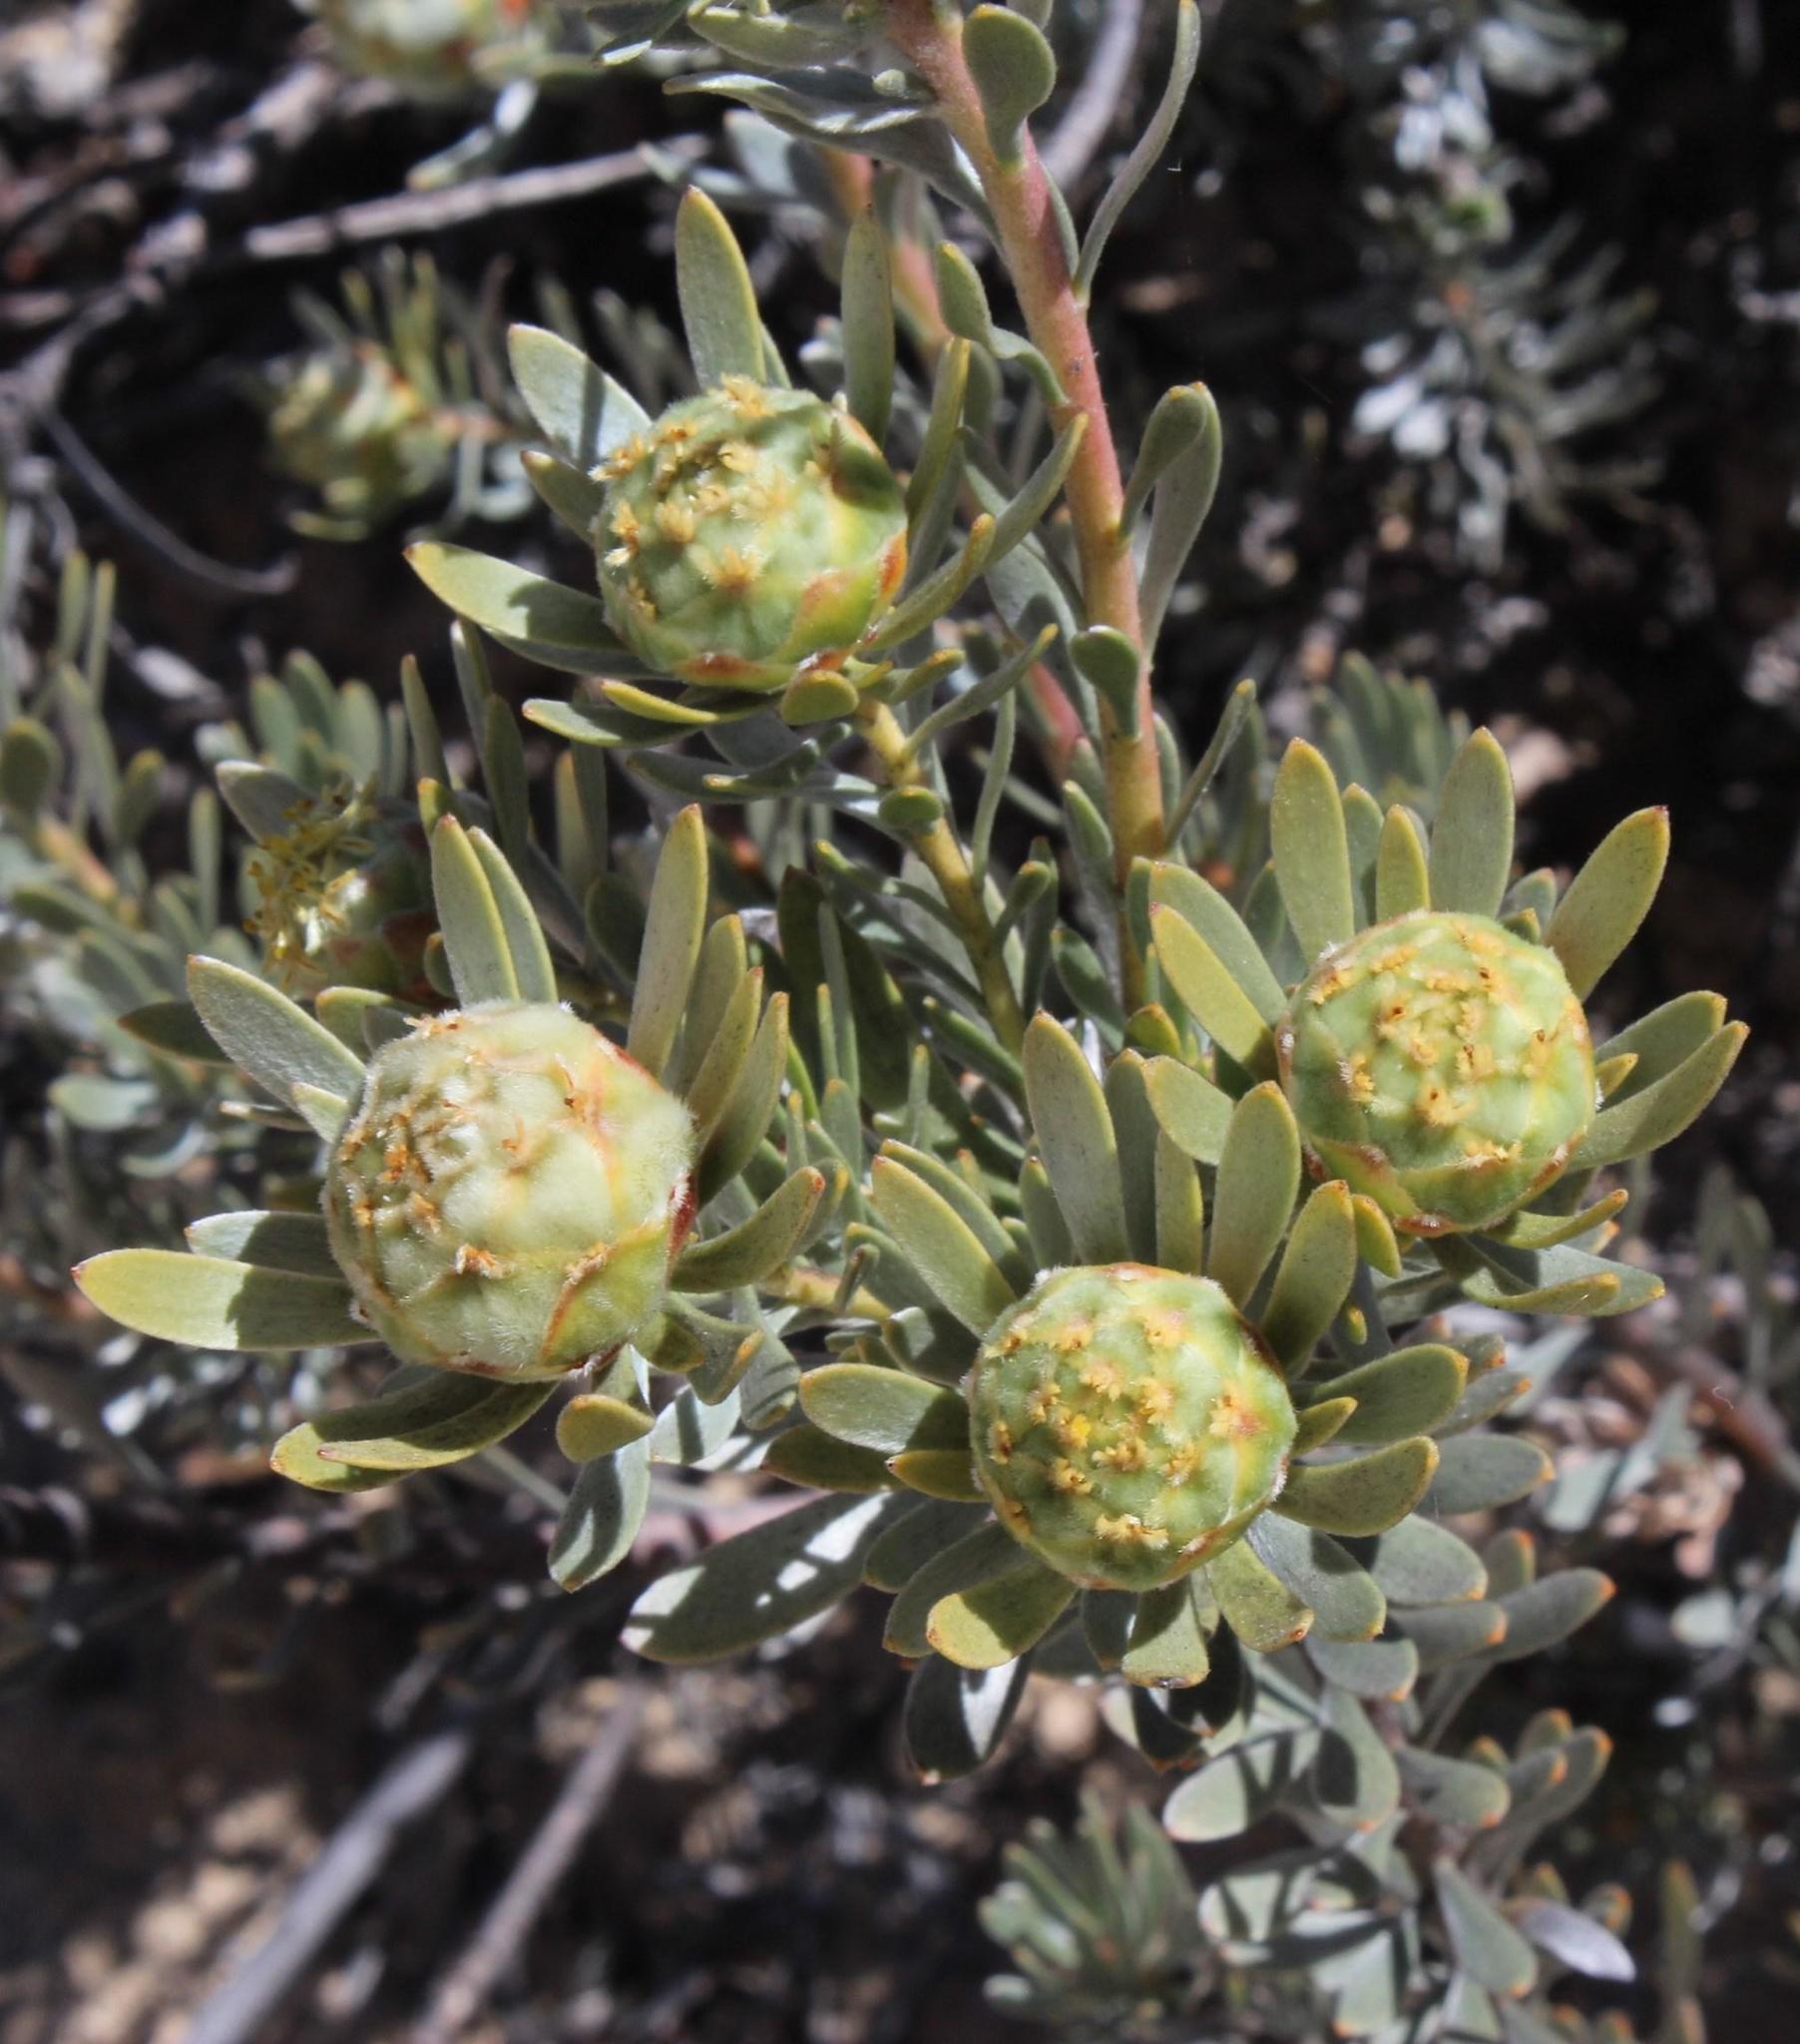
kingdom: Plantae
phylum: Tracheophyta
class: Magnoliopsida
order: Proteales
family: Proteaceae
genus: Leucadendron
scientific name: Leucadendron nitidum
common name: Bokkeveld conebush
